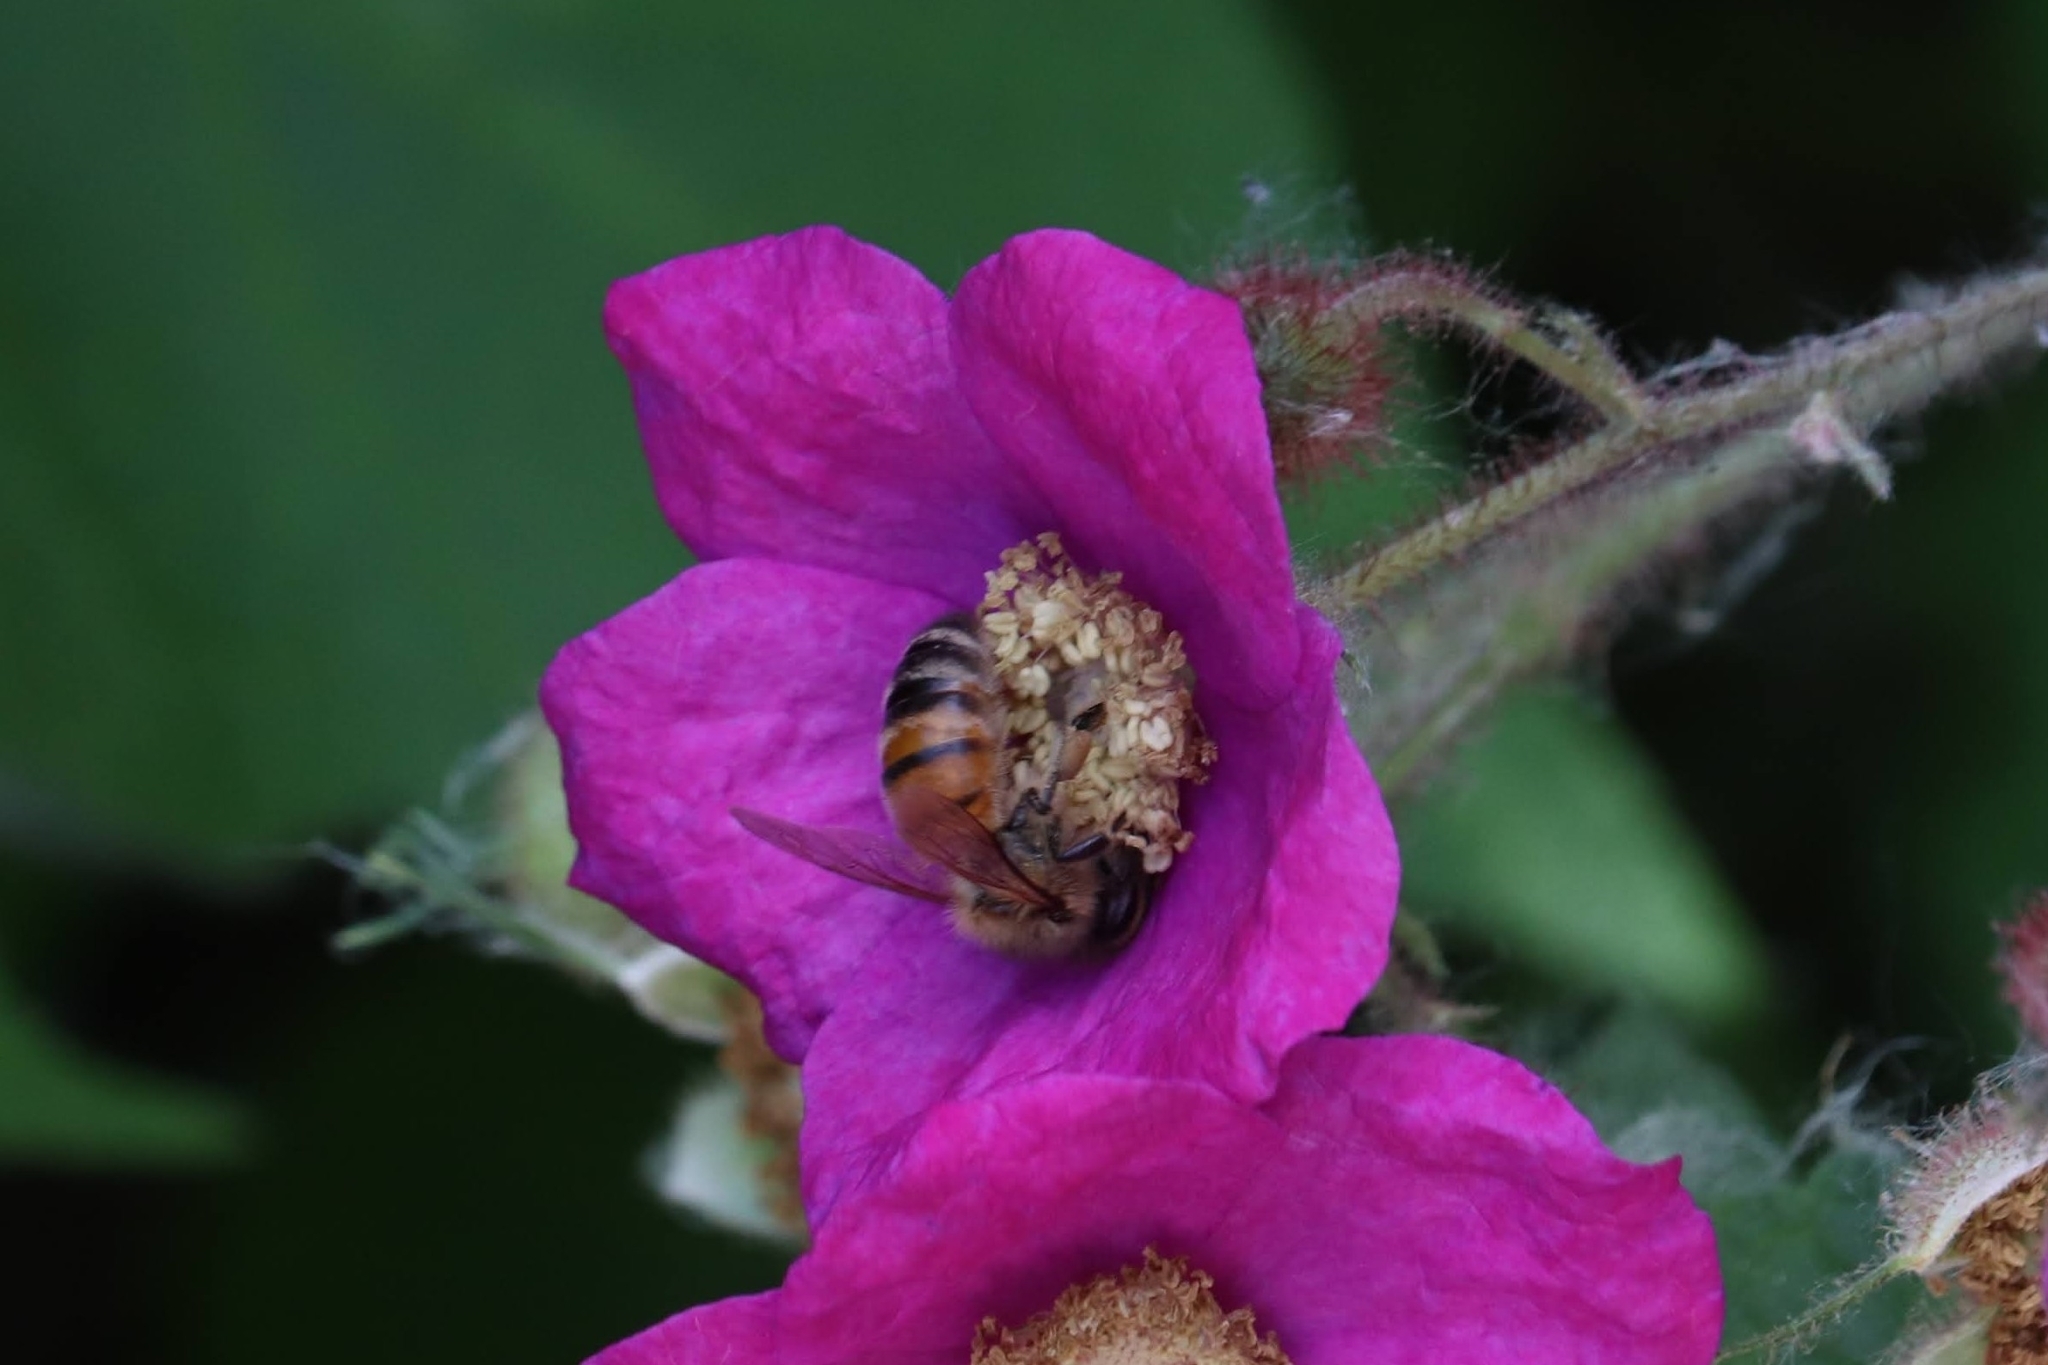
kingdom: Animalia
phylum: Arthropoda
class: Insecta
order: Hymenoptera
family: Apidae
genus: Apis
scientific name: Apis mellifera
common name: Honey bee
